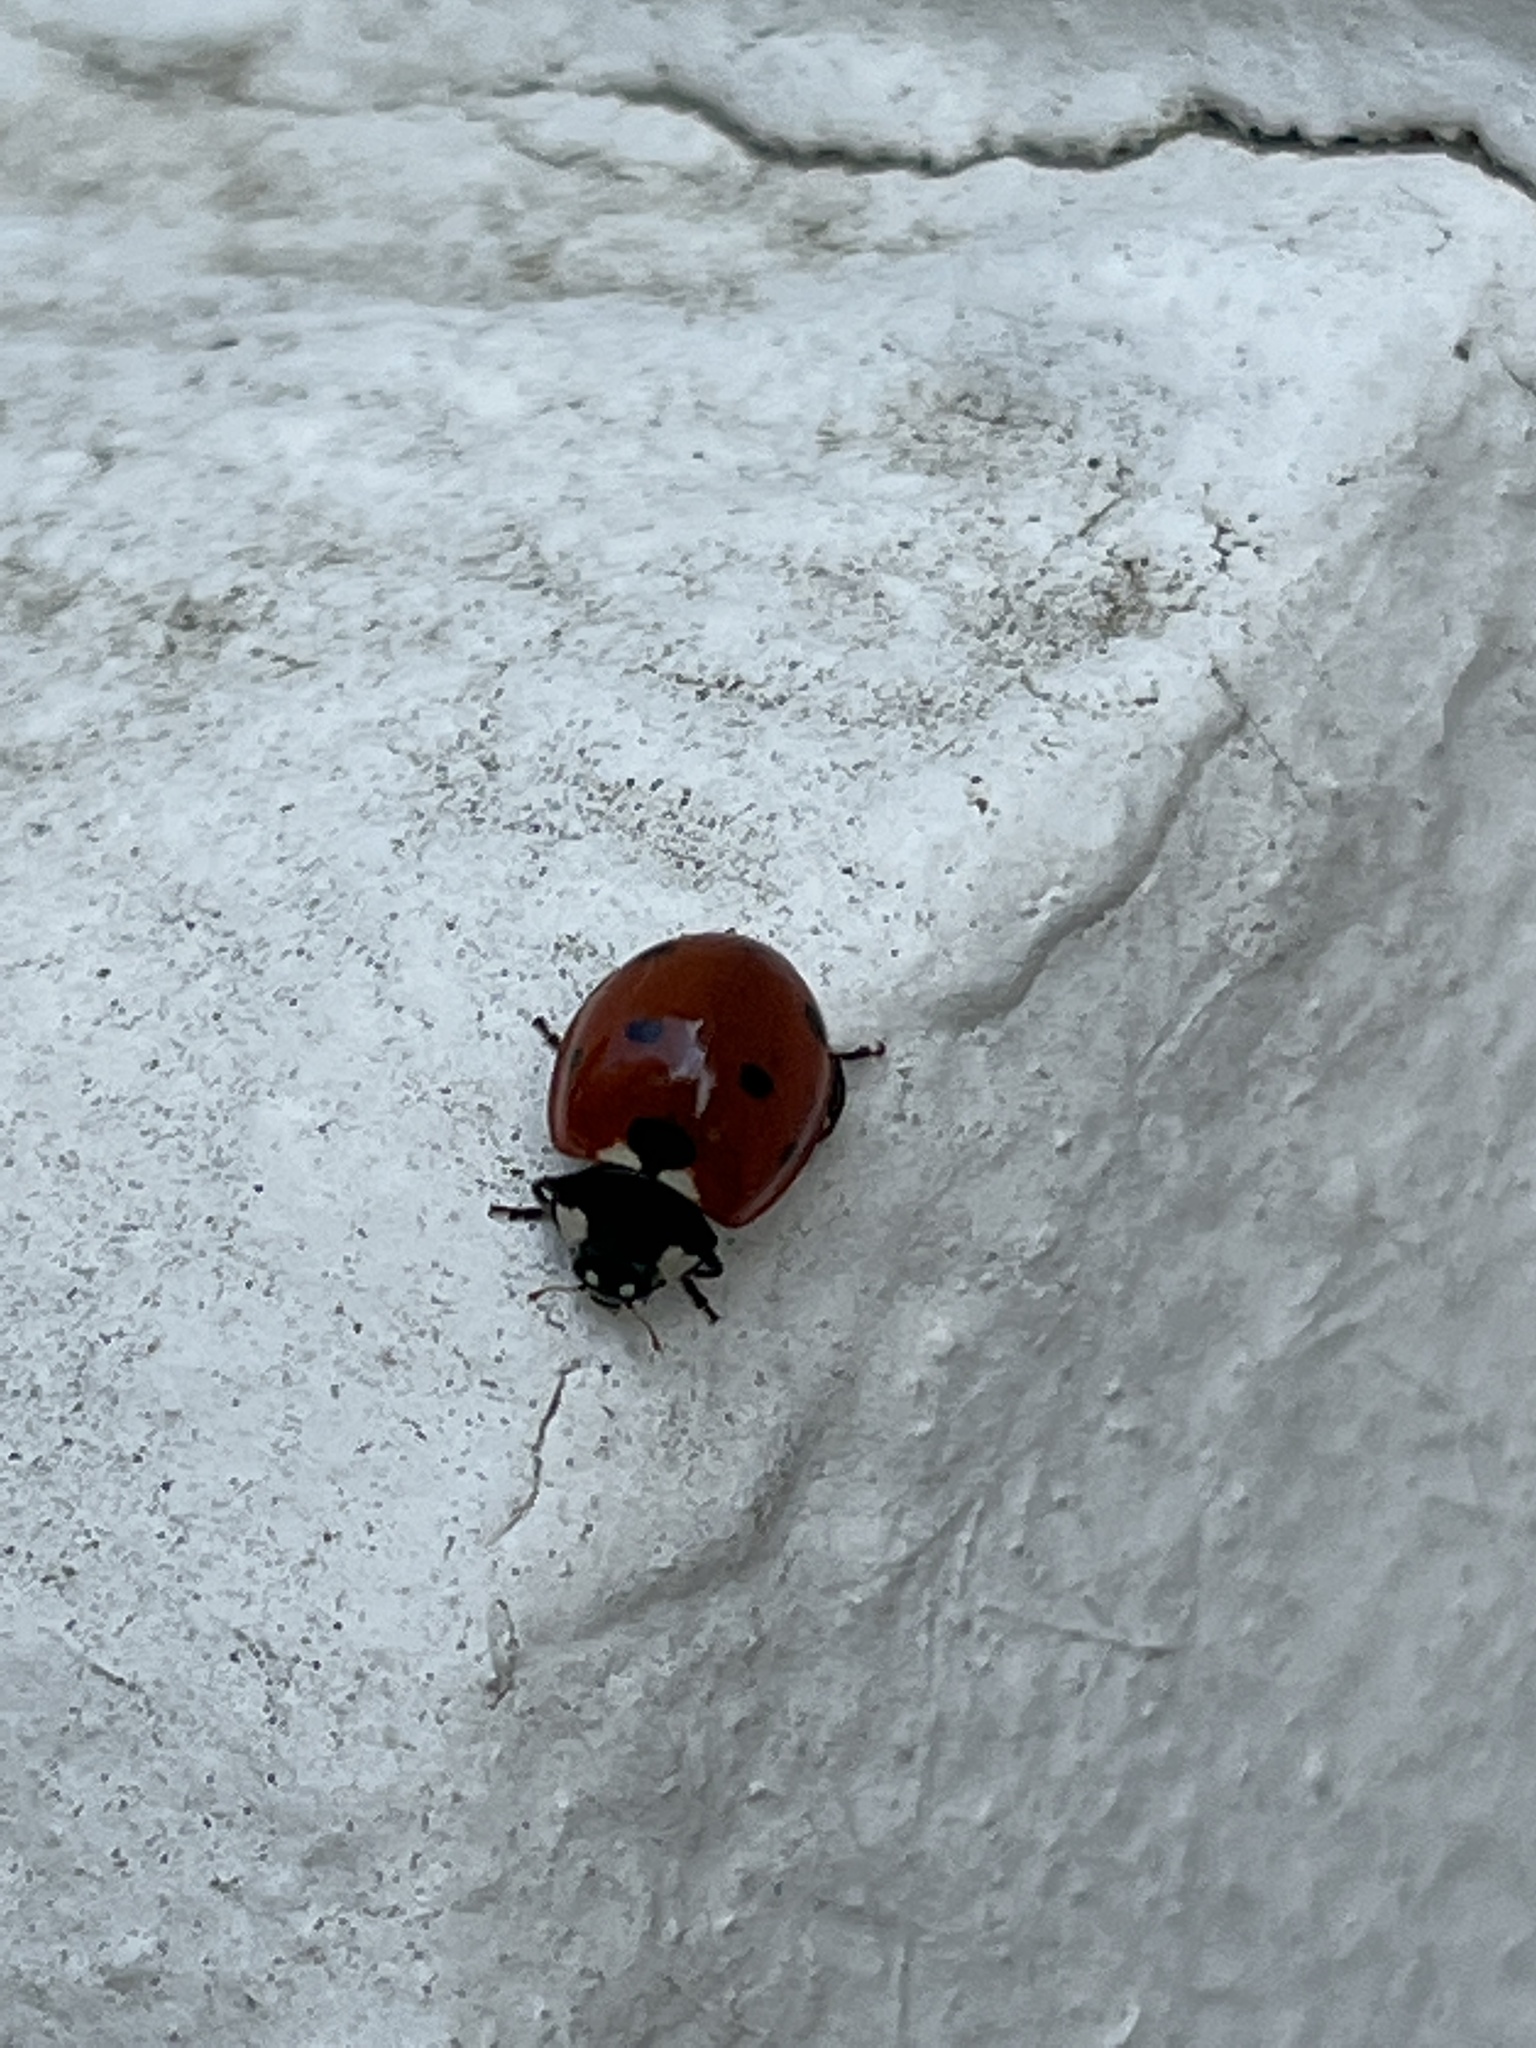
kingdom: Animalia
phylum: Arthropoda
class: Insecta
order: Coleoptera
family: Coccinellidae
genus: Coccinella
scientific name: Coccinella septempunctata
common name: Sevenspotted lady beetle
